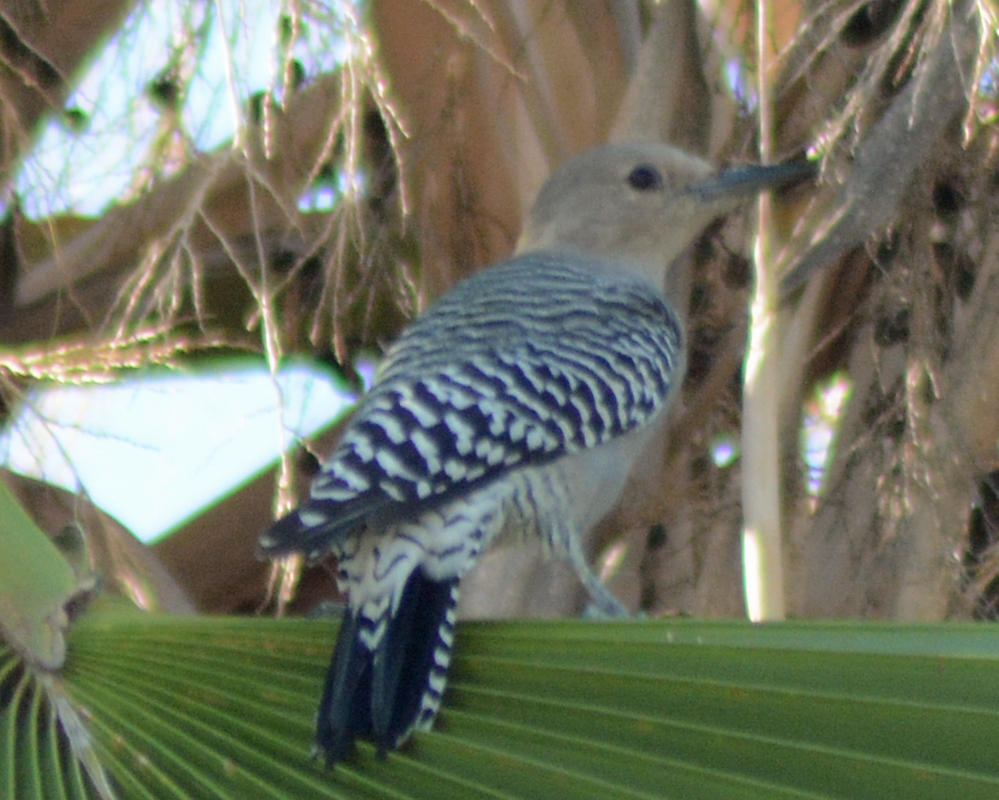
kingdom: Animalia
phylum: Chordata
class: Aves
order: Piciformes
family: Picidae
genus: Melanerpes
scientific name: Melanerpes uropygialis
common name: Gila woodpecker
